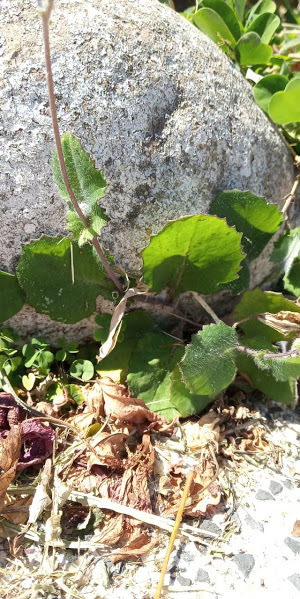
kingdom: Plantae
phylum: Tracheophyta
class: Magnoliopsida
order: Asterales
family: Asteraceae
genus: Emilia
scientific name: Emilia fosbergii
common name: Florida tasselflower
